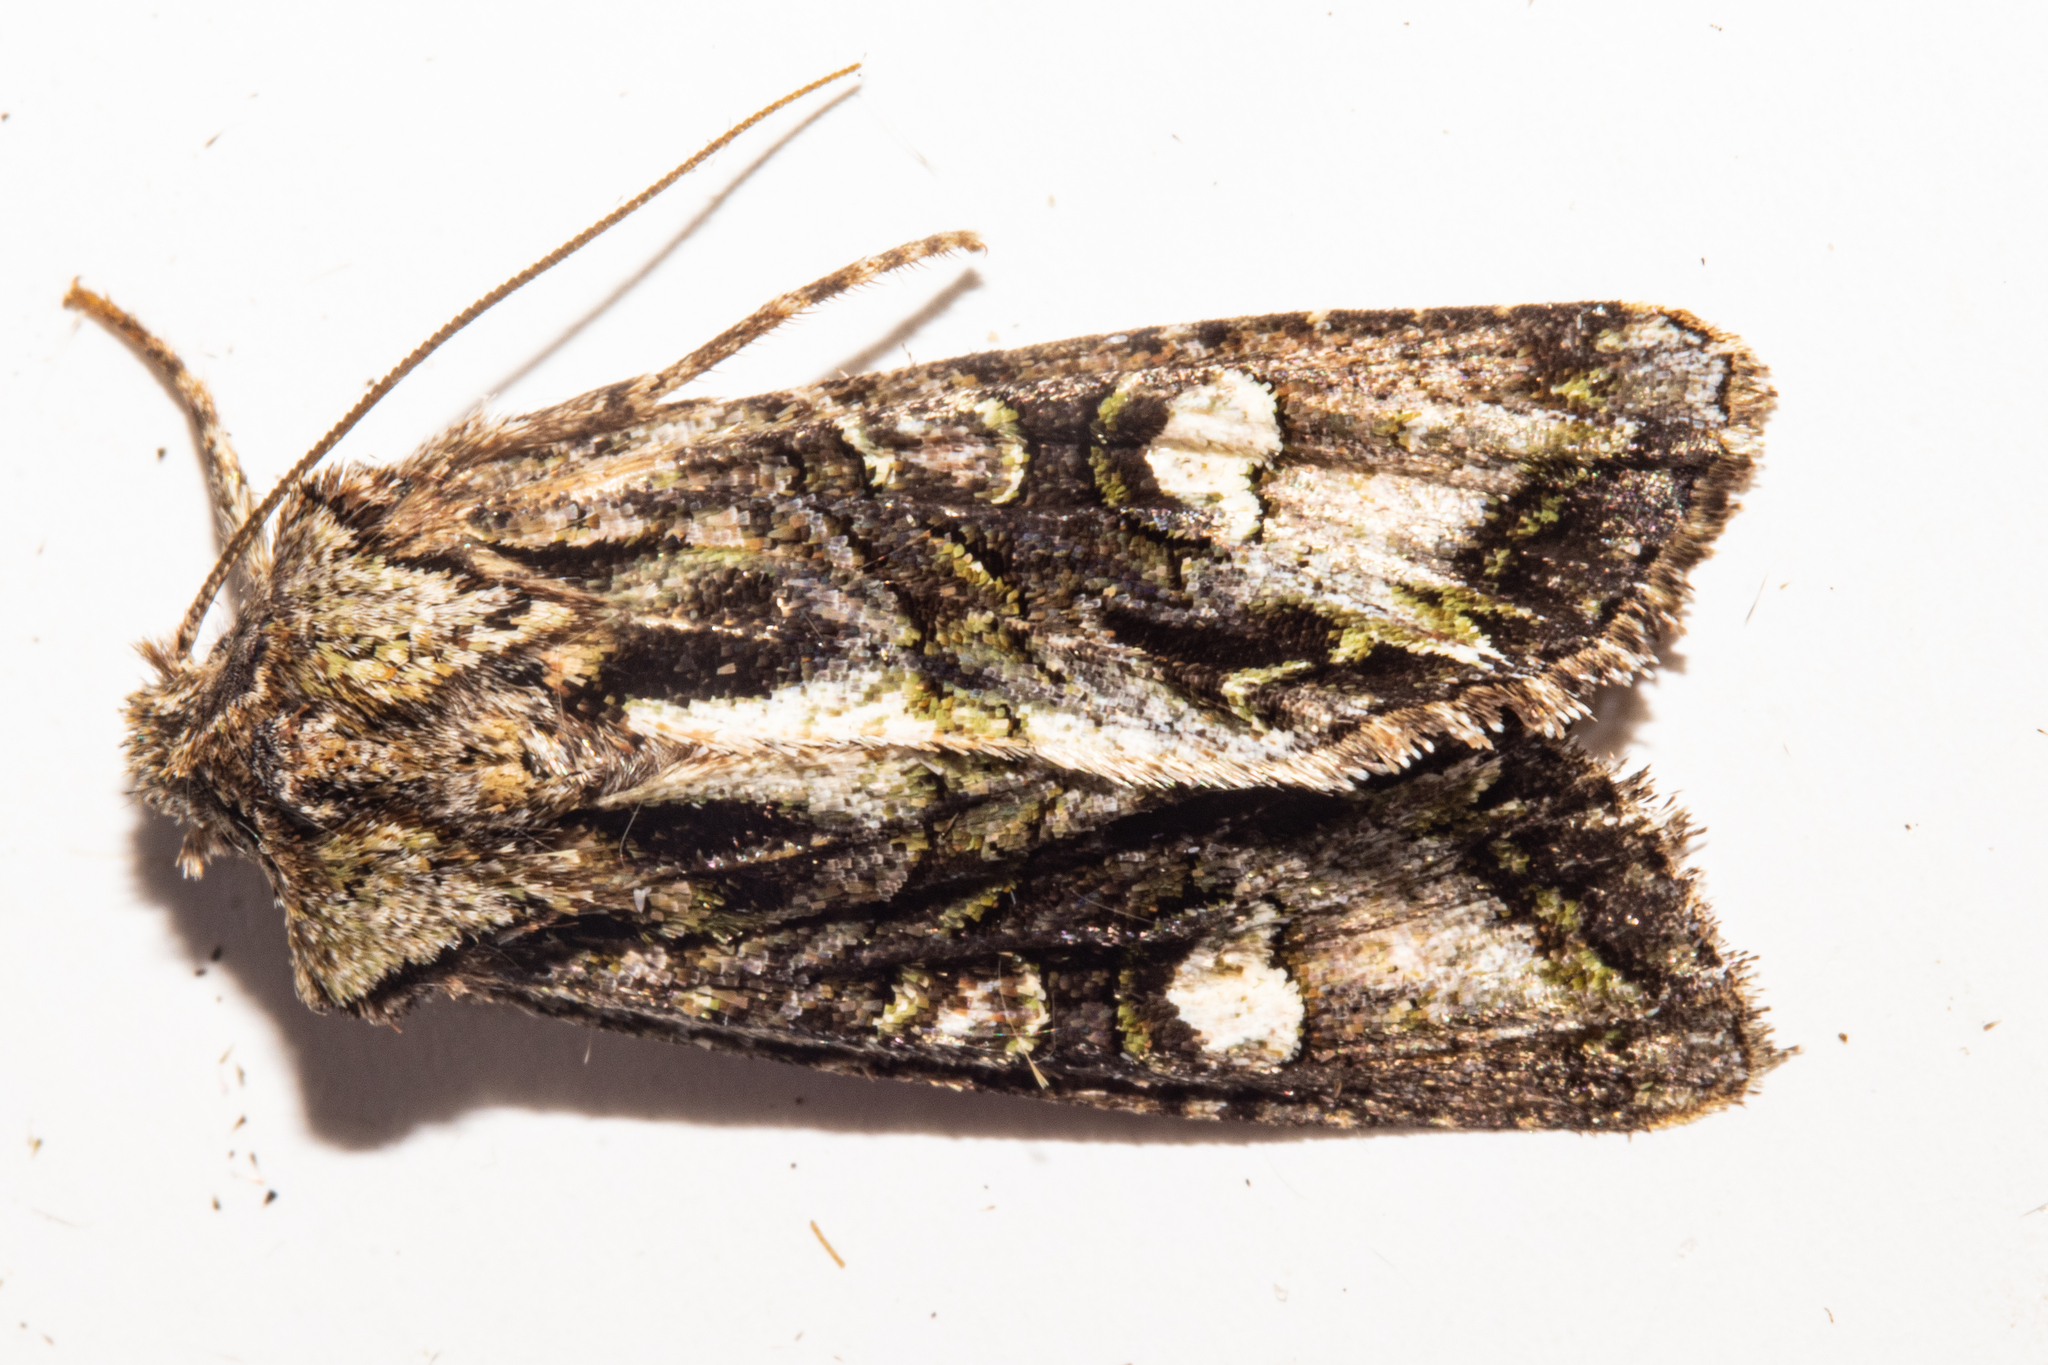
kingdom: Animalia
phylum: Arthropoda
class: Insecta
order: Lepidoptera
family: Noctuidae
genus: Ichneutica
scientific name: Ichneutica insignis
